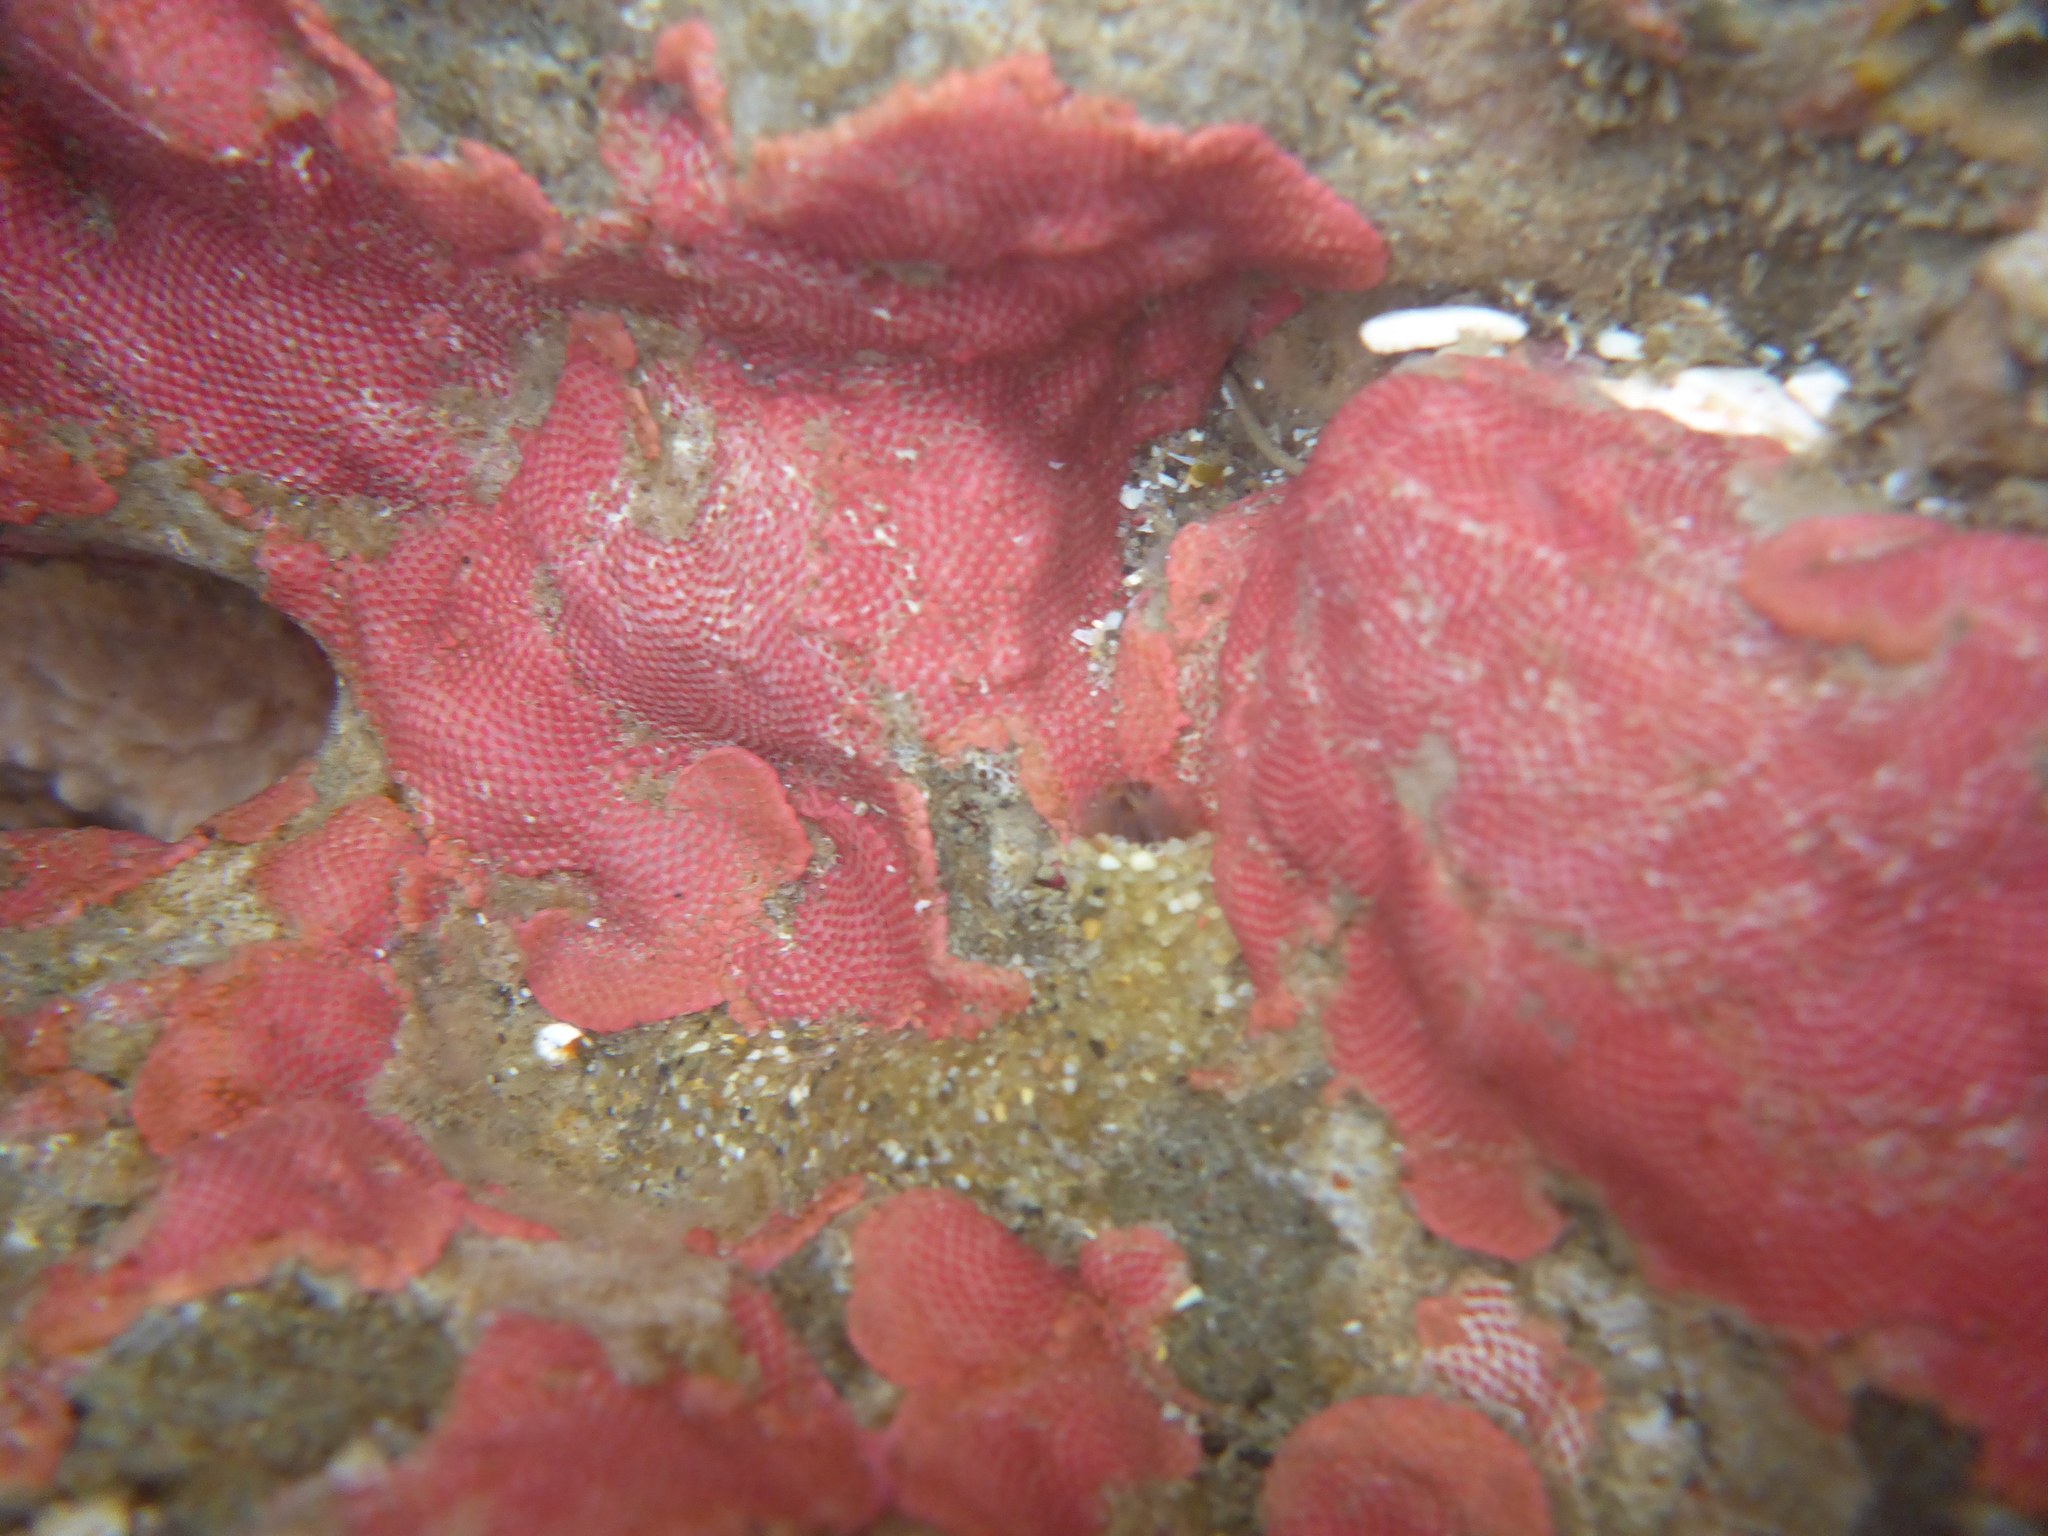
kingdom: Animalia
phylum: Bryozoa
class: Gymnolaemata
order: Cheilostomatida
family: Eurystomellidae
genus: Integripelta
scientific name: Integripelta bilabiata
